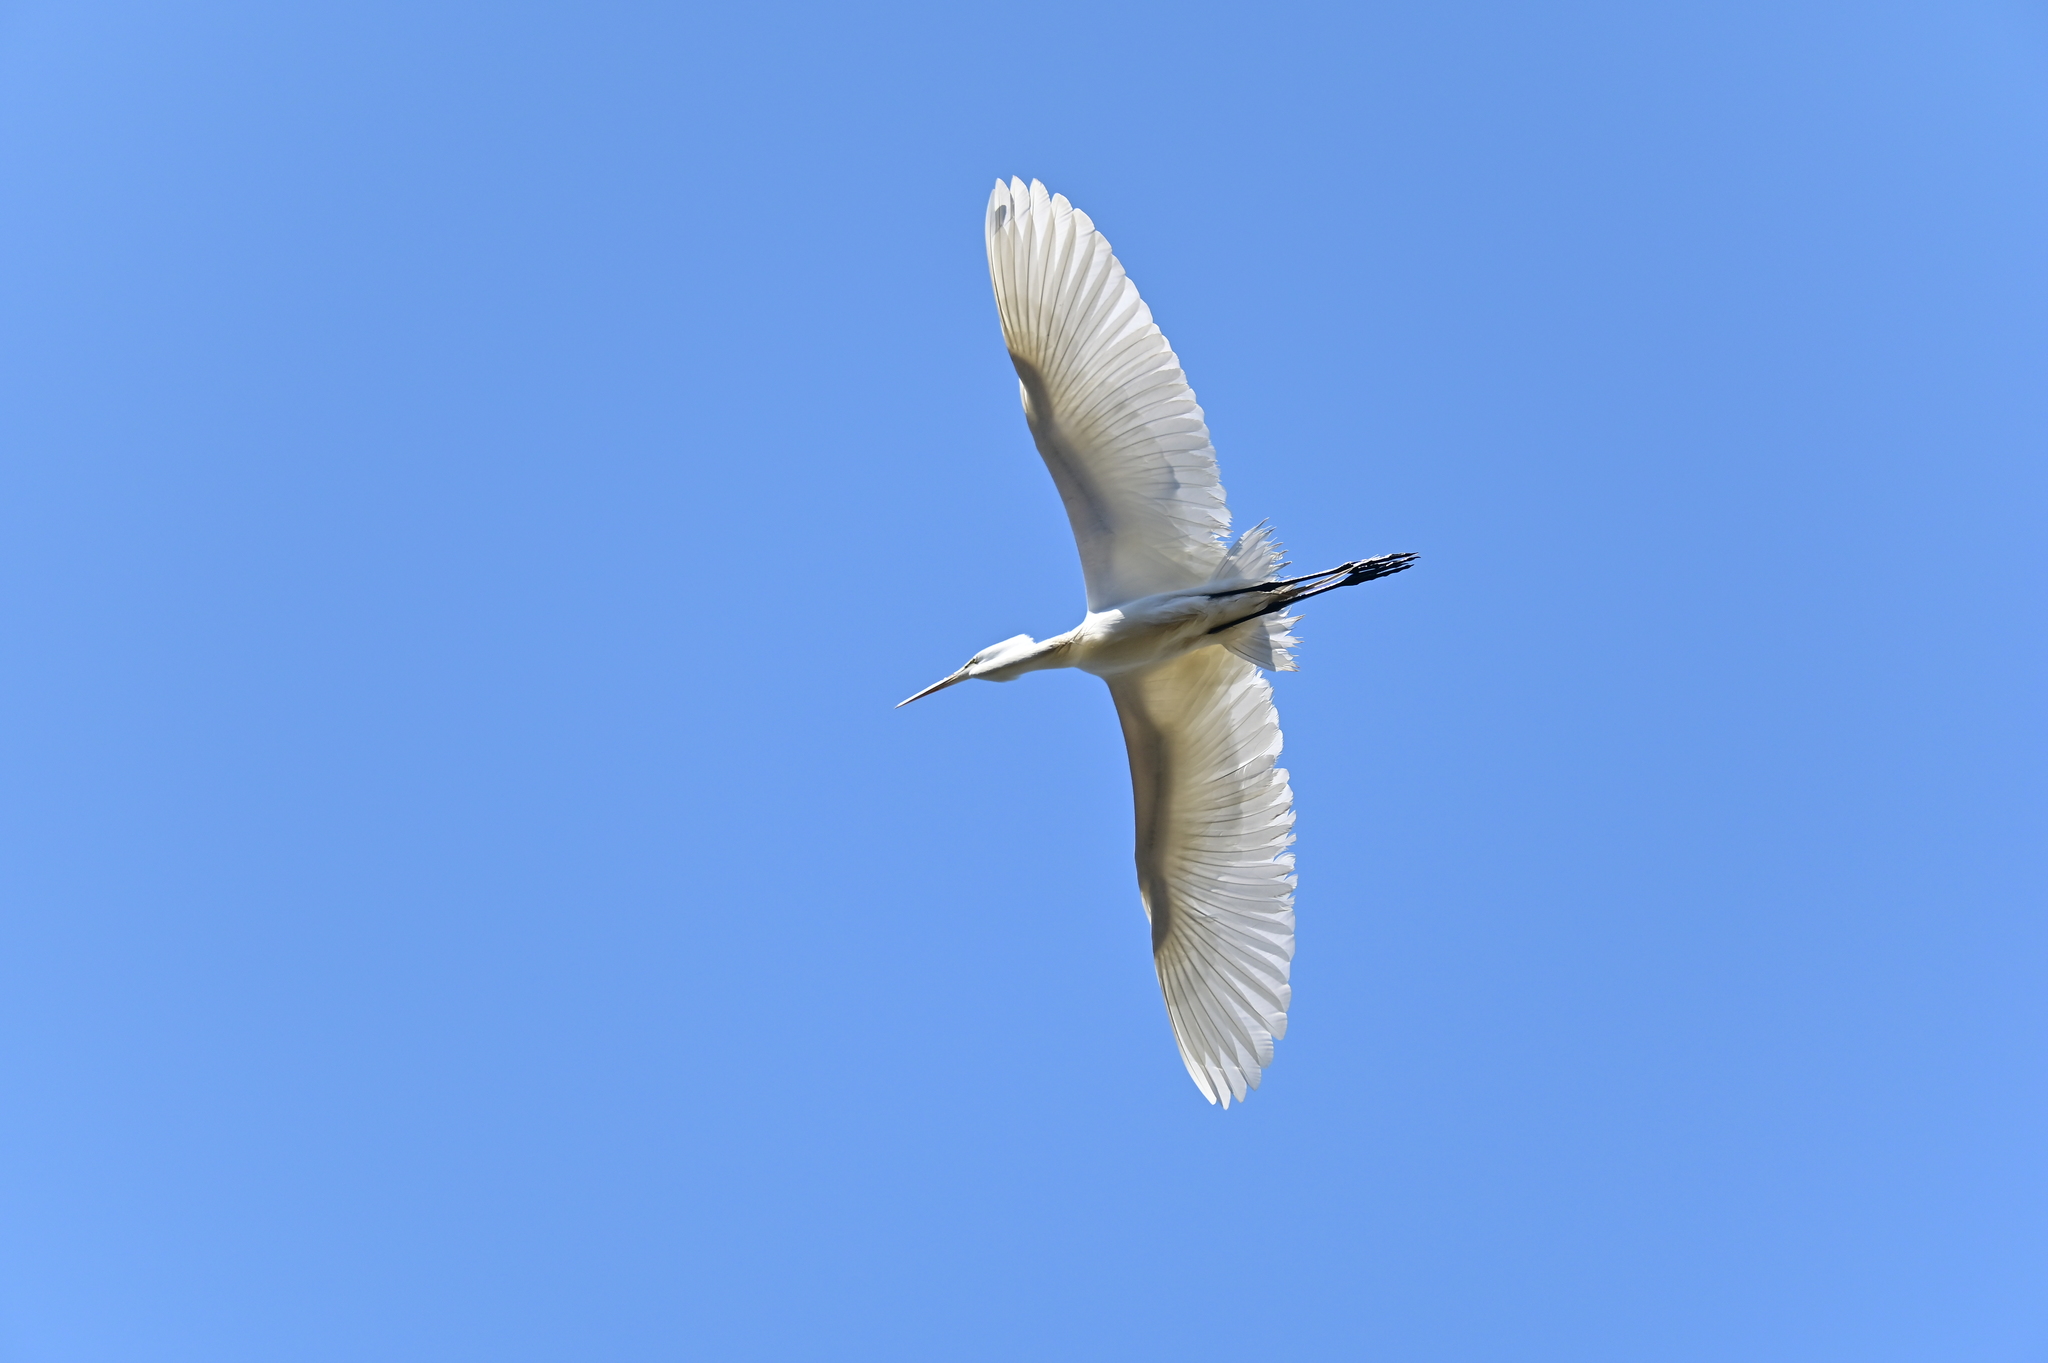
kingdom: Animalia
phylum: Chordata
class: Aves
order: Pelecaniformes
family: Ardeidae
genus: Ardea
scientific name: Ardea alba
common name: Great egret
